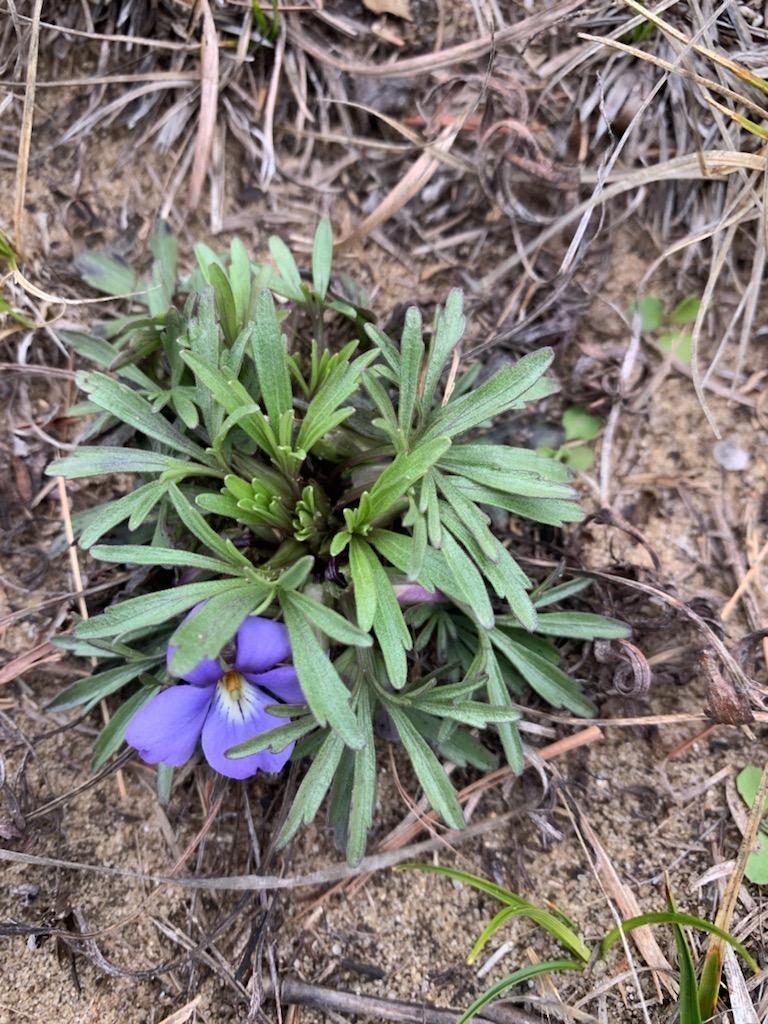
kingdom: Plantae
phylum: Tracheophyta
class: Magnoliopsida
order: Malpighiales
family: Violaceae
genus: Viola
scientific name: Viola pedata
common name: Pansy violet
